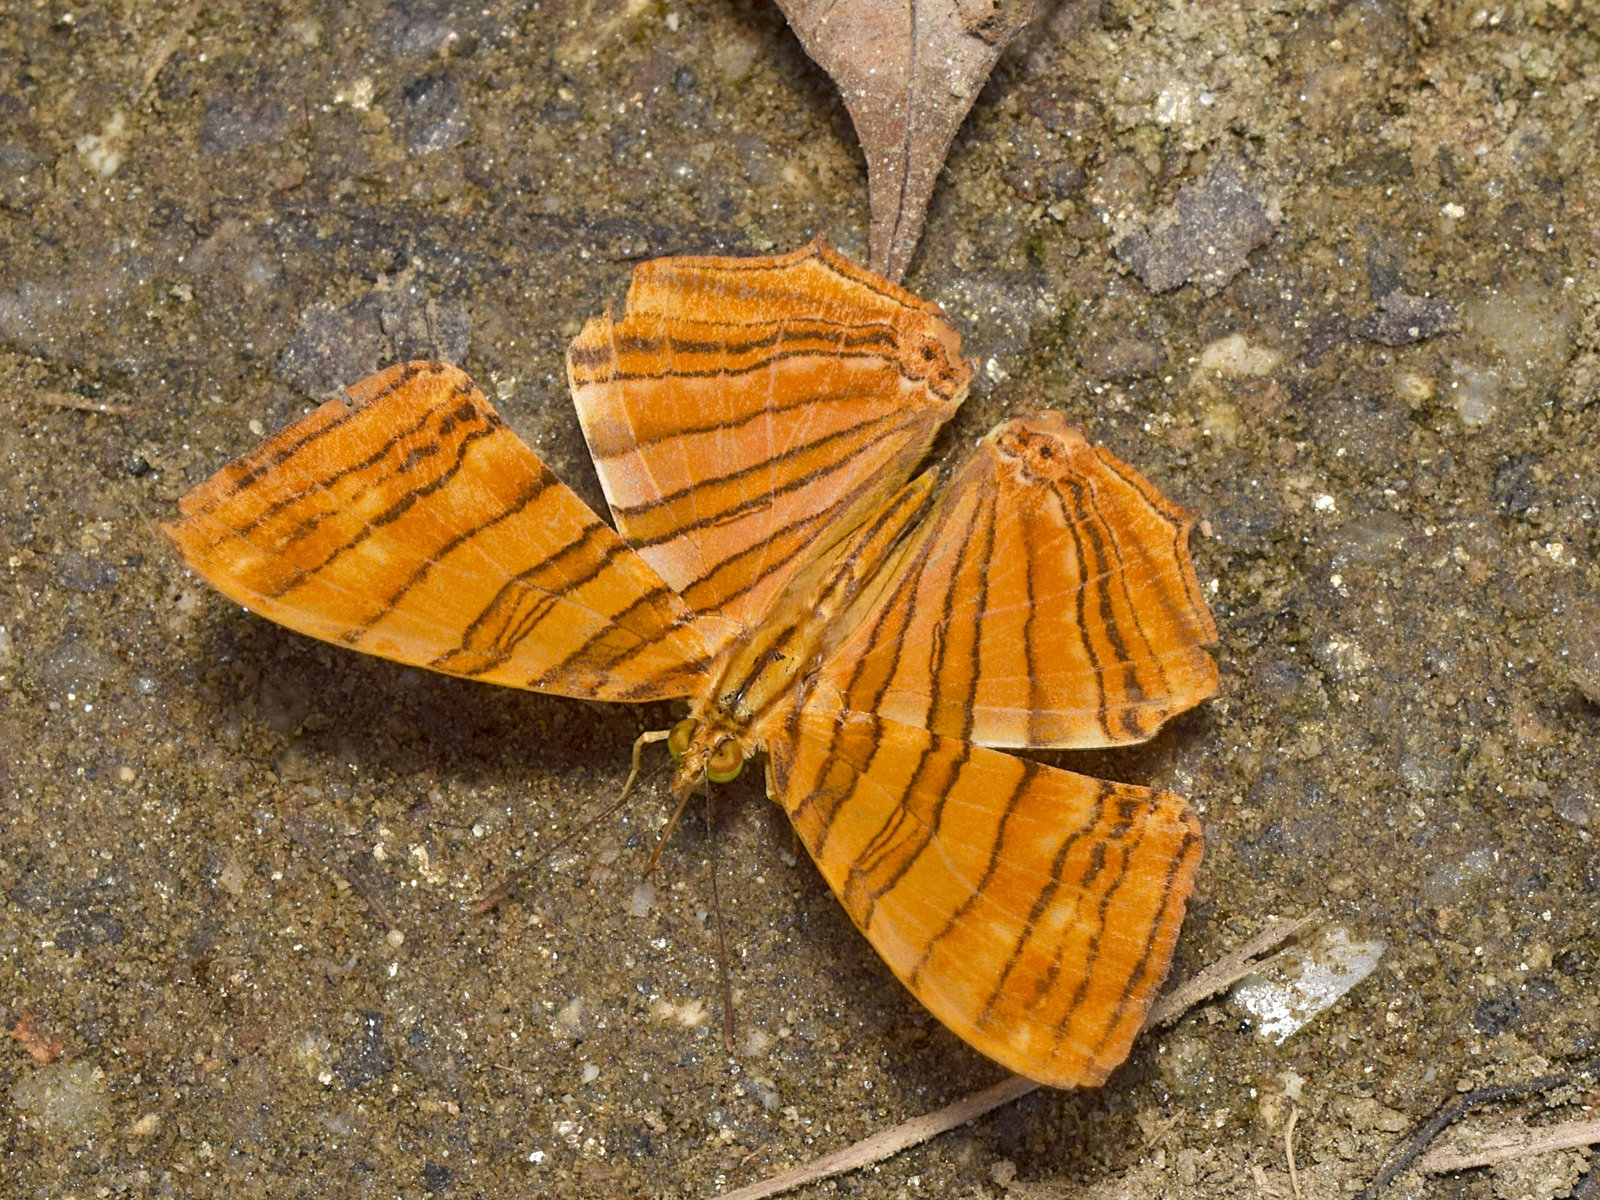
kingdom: Animalia
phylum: Arthropoda
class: Insecta
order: Lepidoptera
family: Nymphalidae
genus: Chersonesia
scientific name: Chersonesia risa
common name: Common maplet
